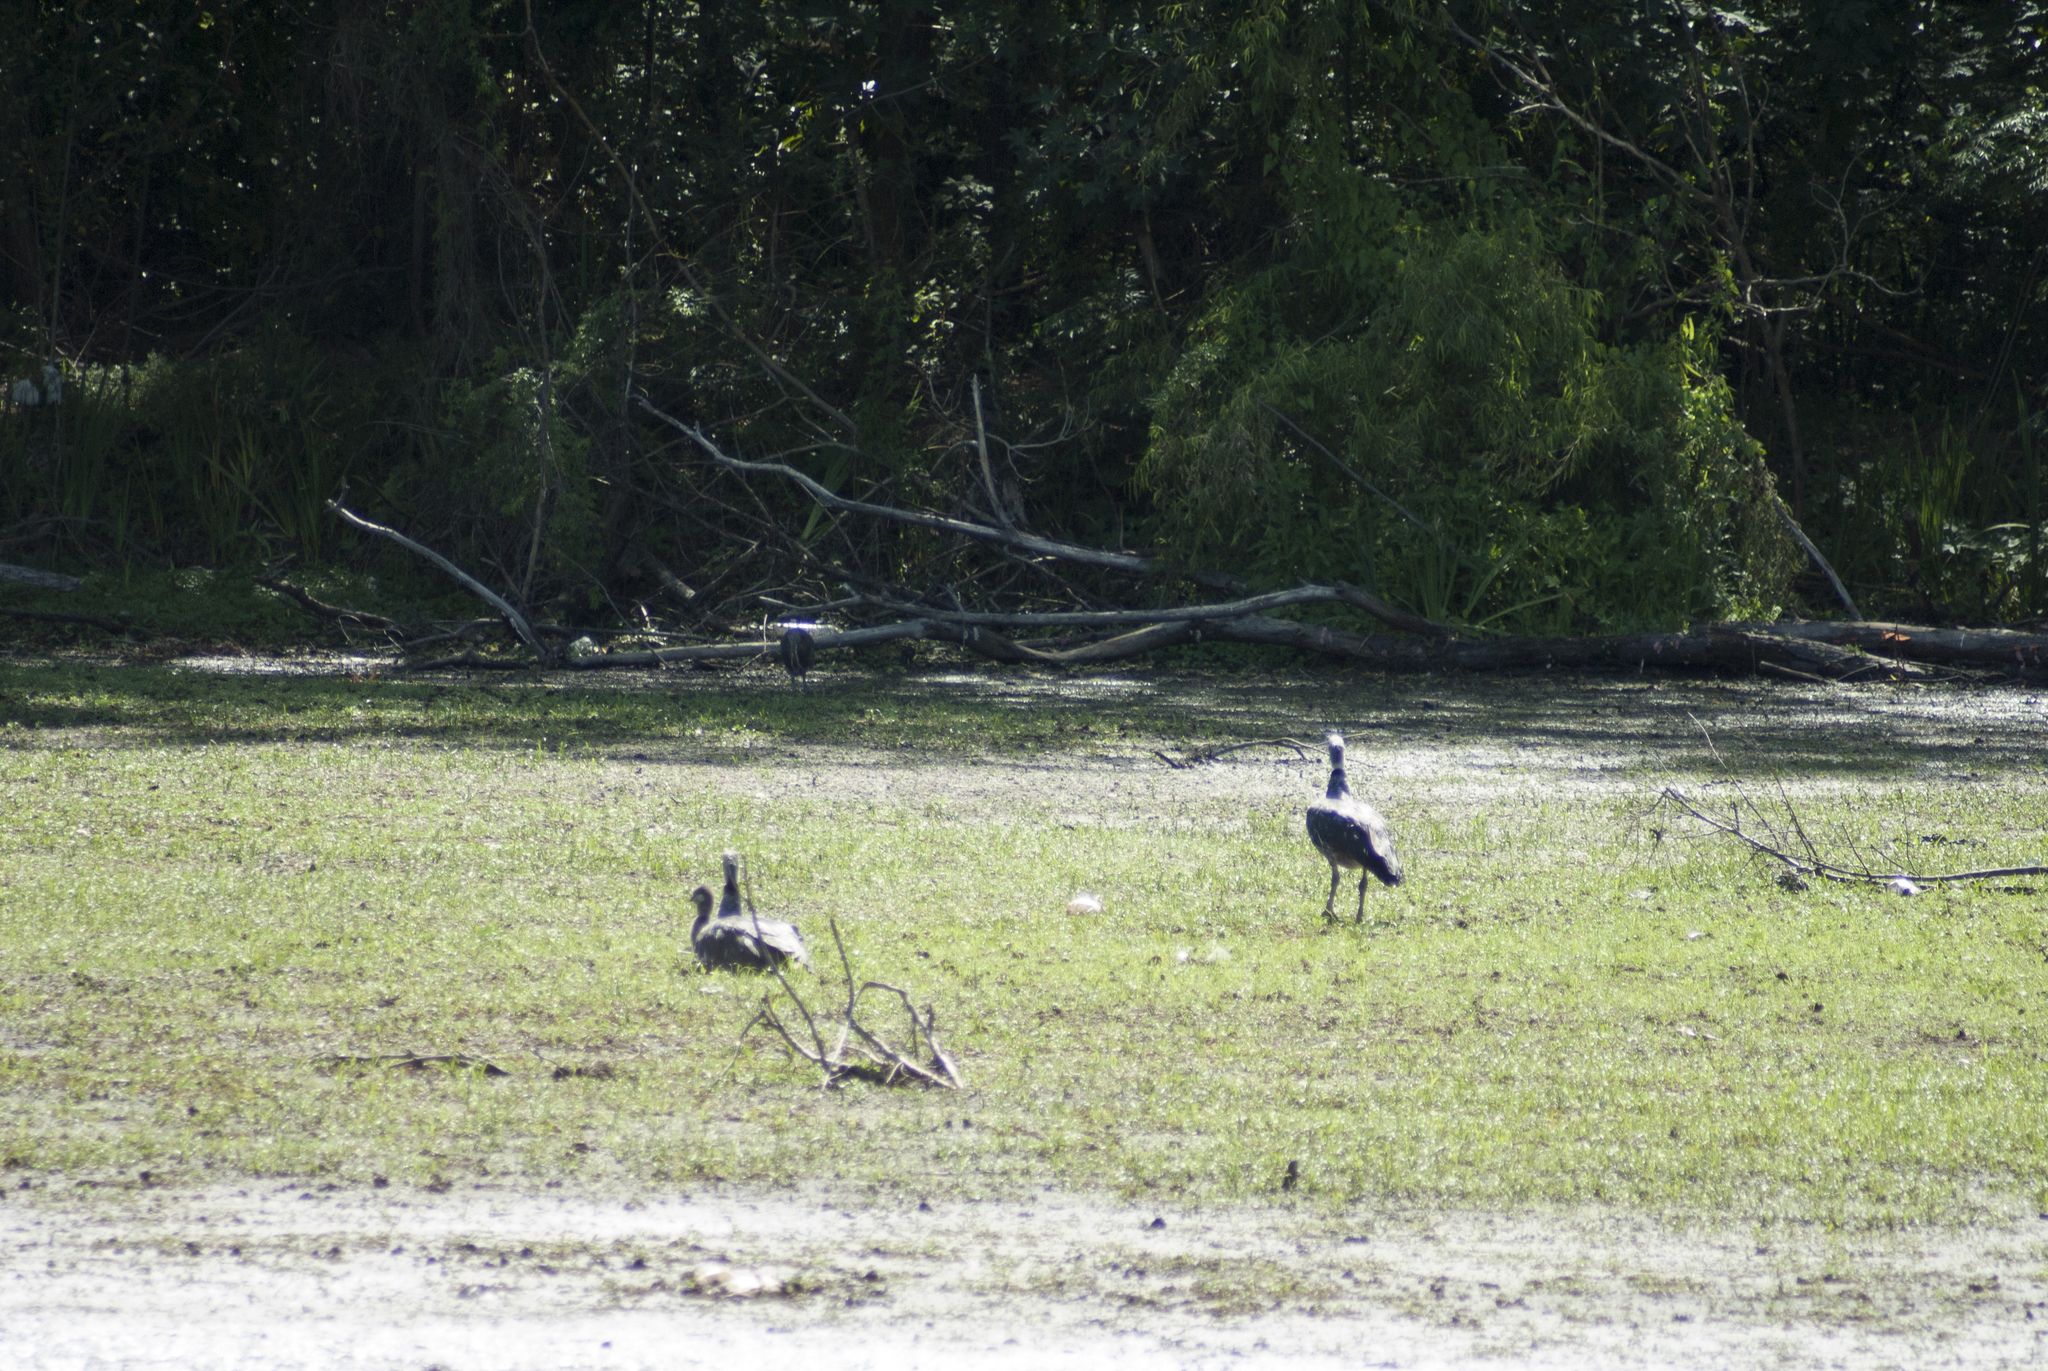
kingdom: Animalia
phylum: Chordata
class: Aves
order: Anseriformes
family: Anhimidae
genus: Chauna
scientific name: Chauna torquata
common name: Southern screamer
